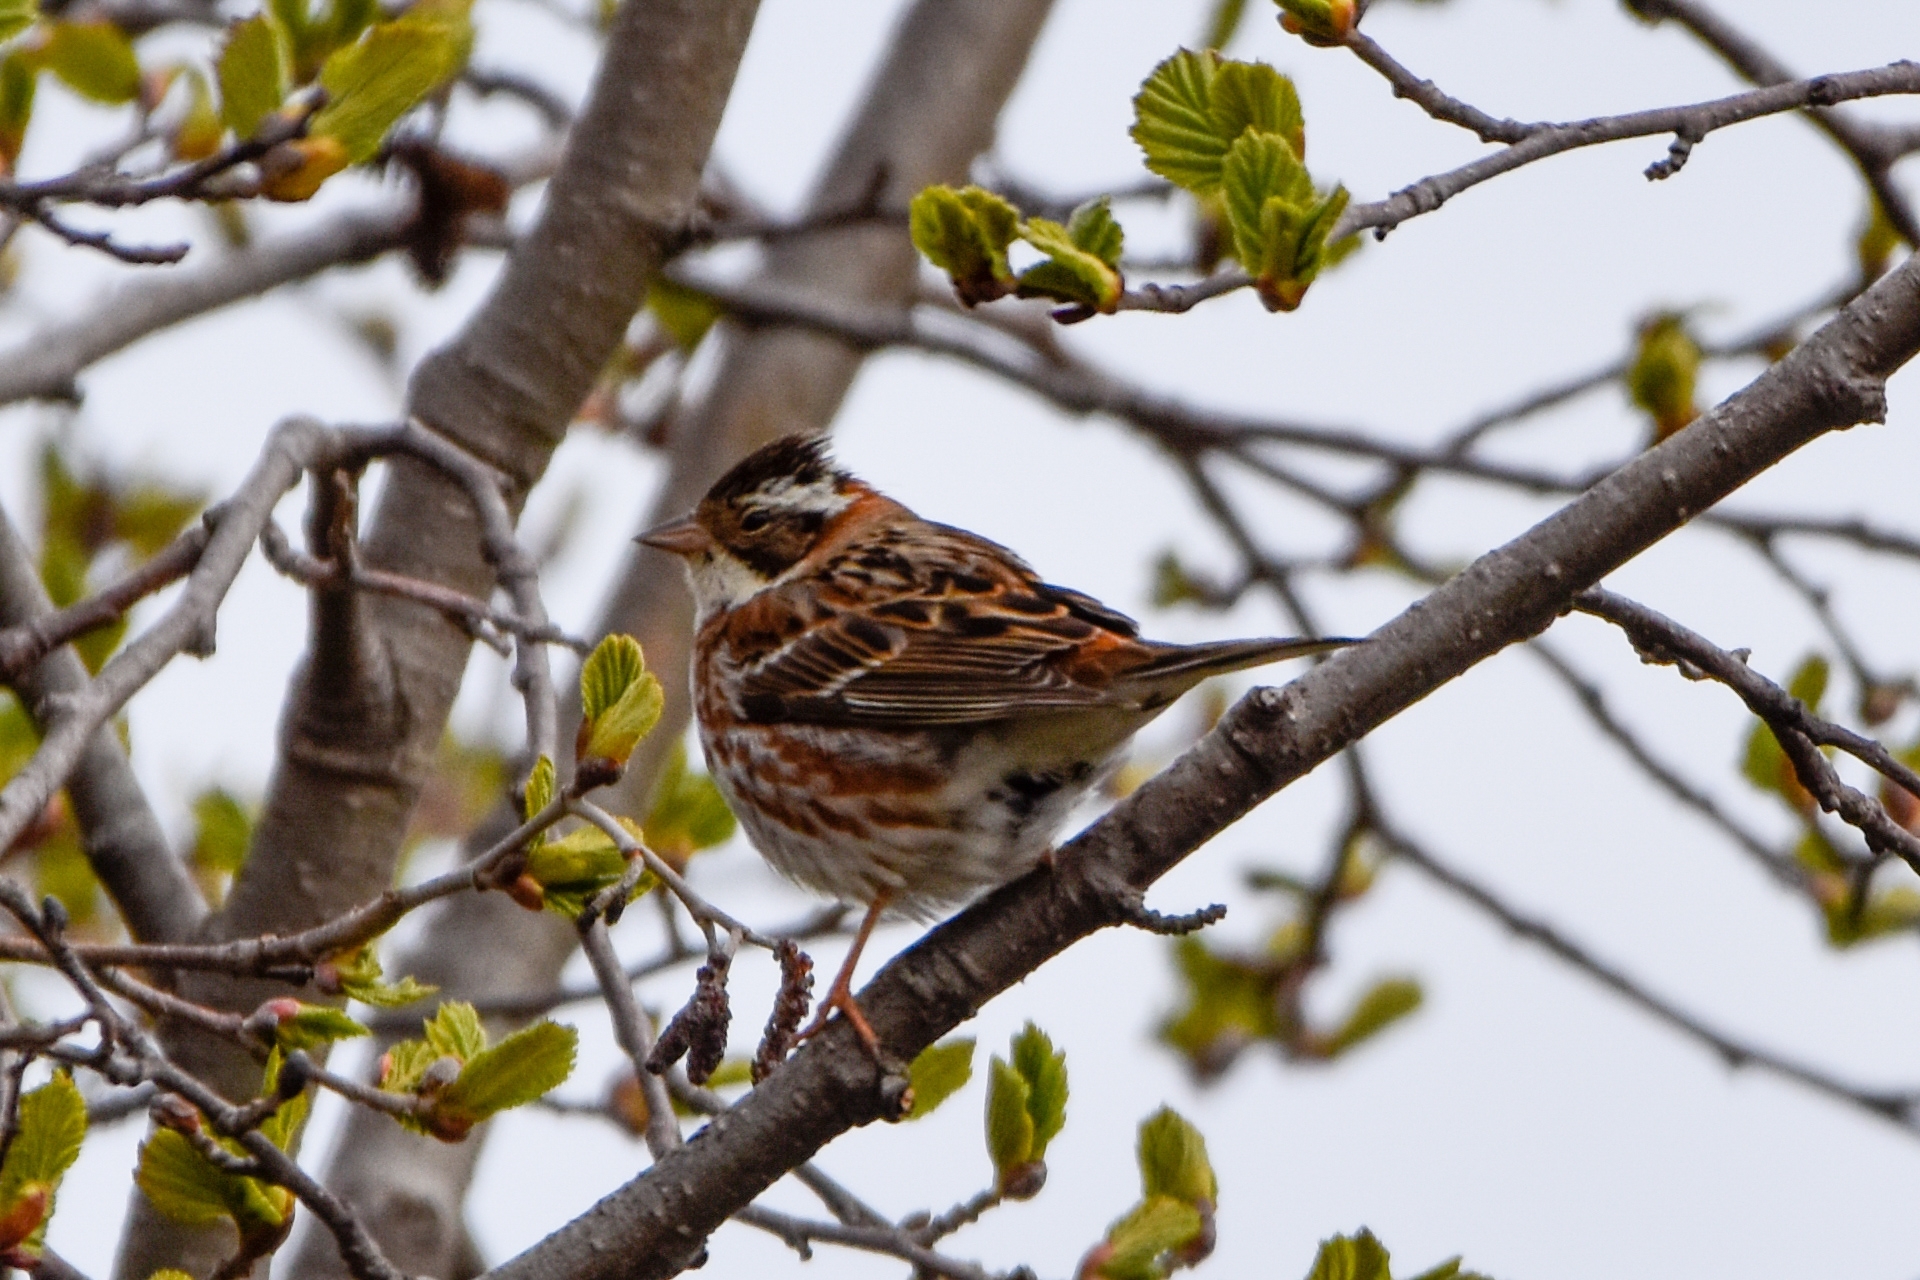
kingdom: Animalia
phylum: Chordata
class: Aves
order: Passeriformes
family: Emberizidae
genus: Emberiza
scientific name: Emberiza rustica
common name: Rustic bunting
